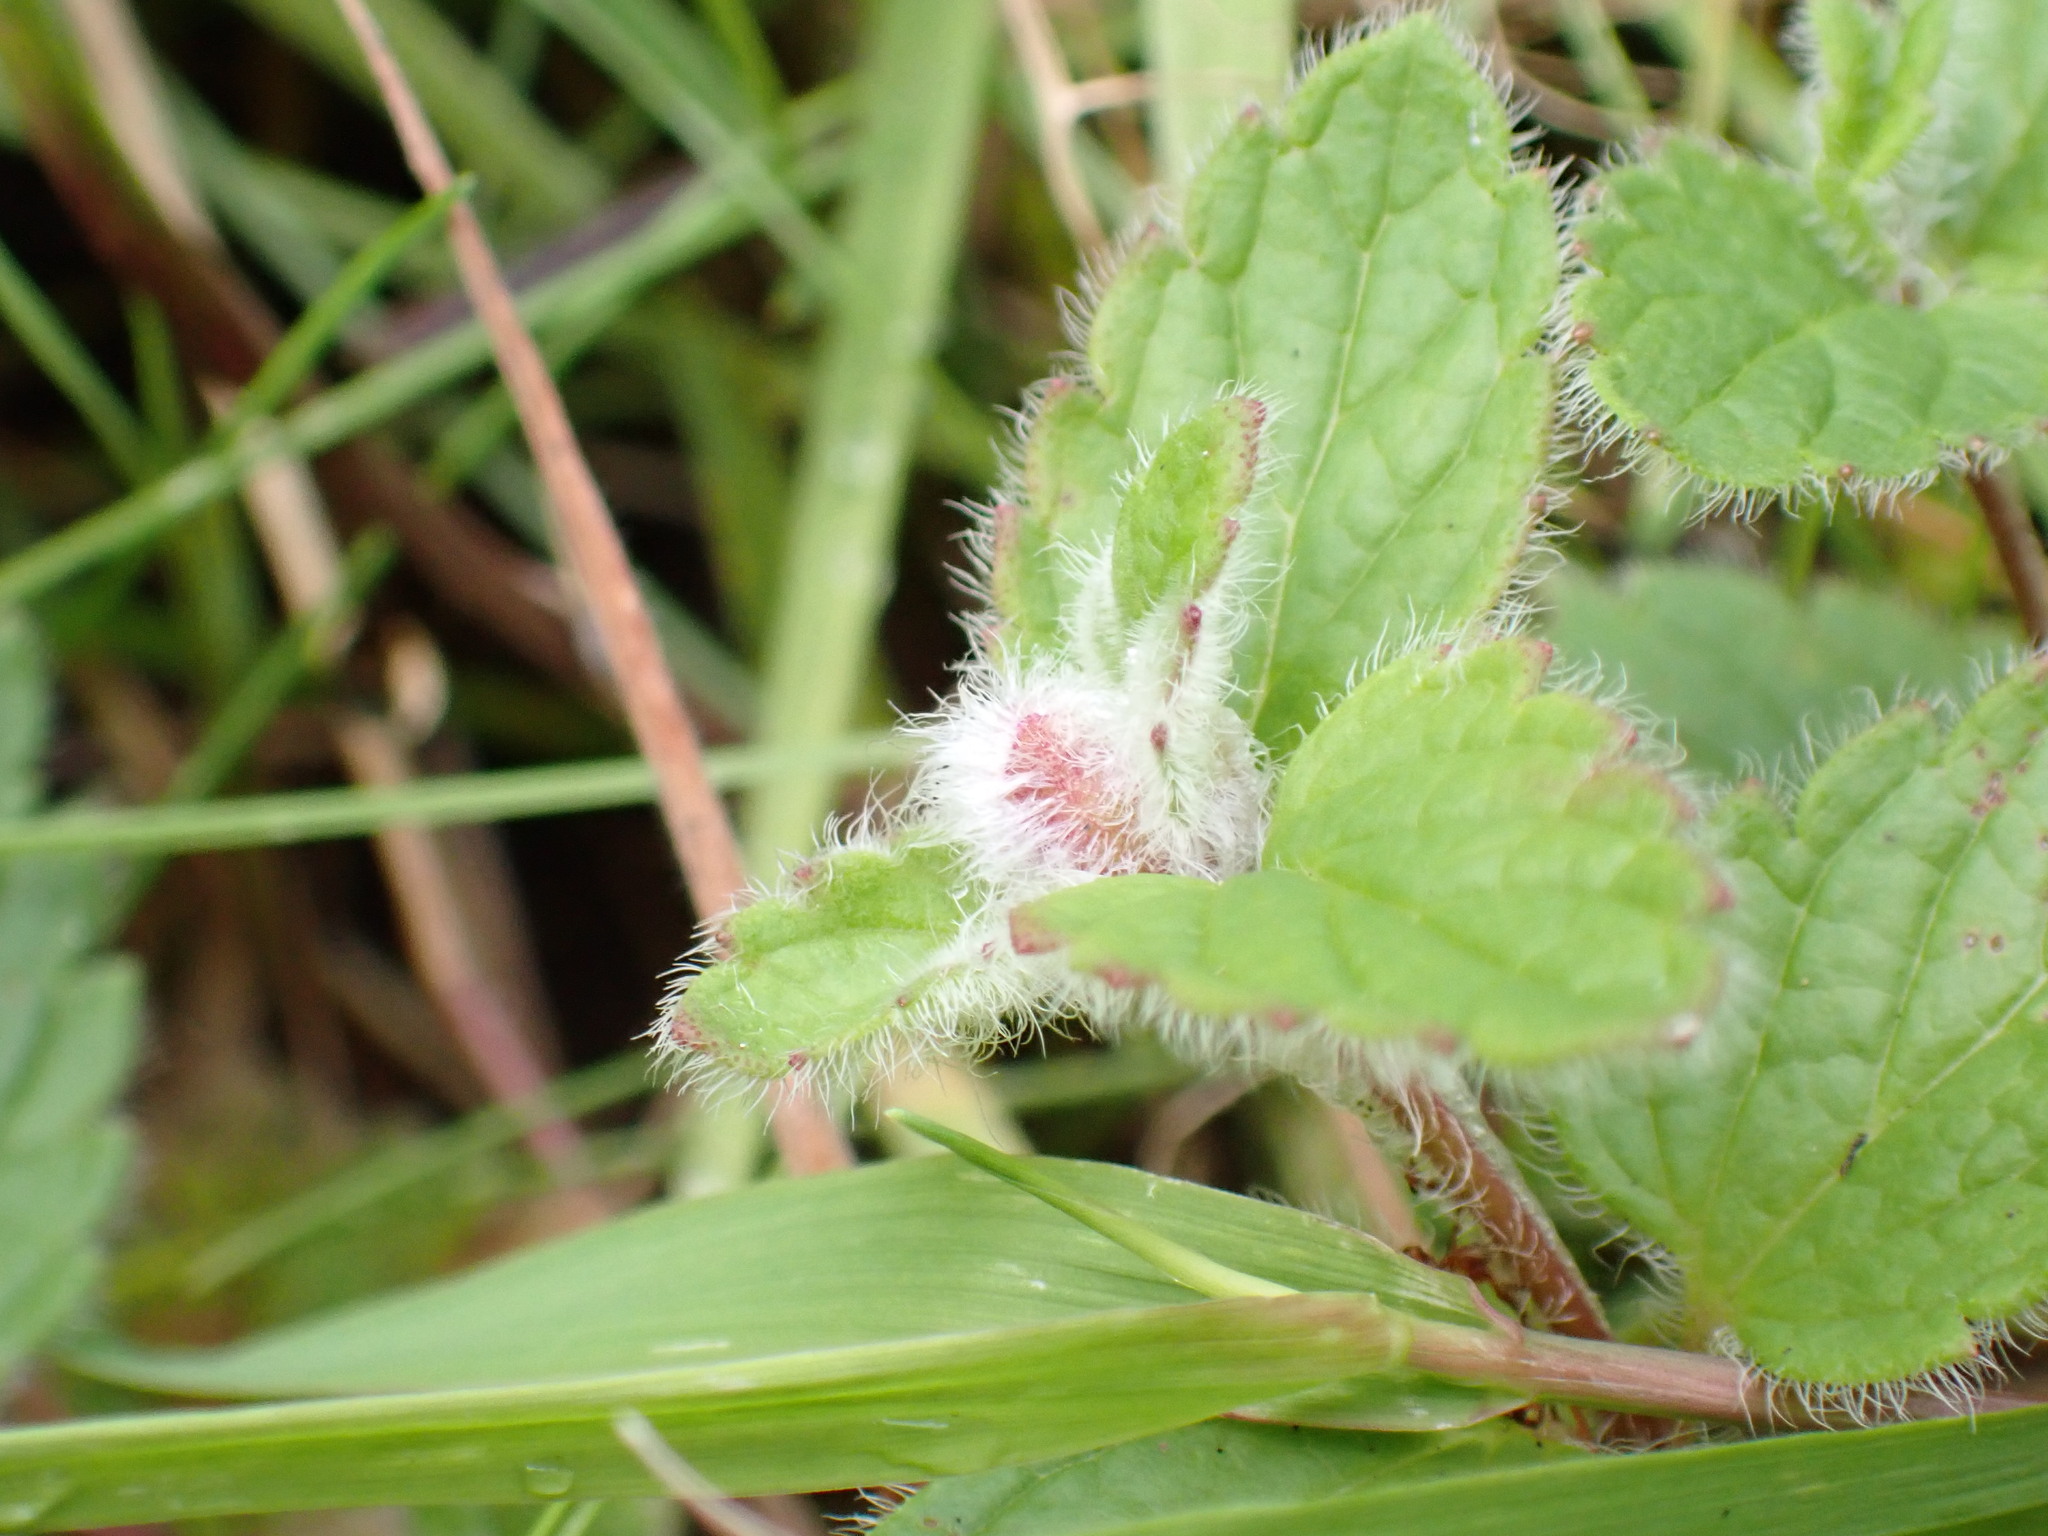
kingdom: Animalia
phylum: Arthropoda
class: Insecta
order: Diptera
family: Cecidomyiidae
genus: Jaapiella
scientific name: Jaapiella veronicae
